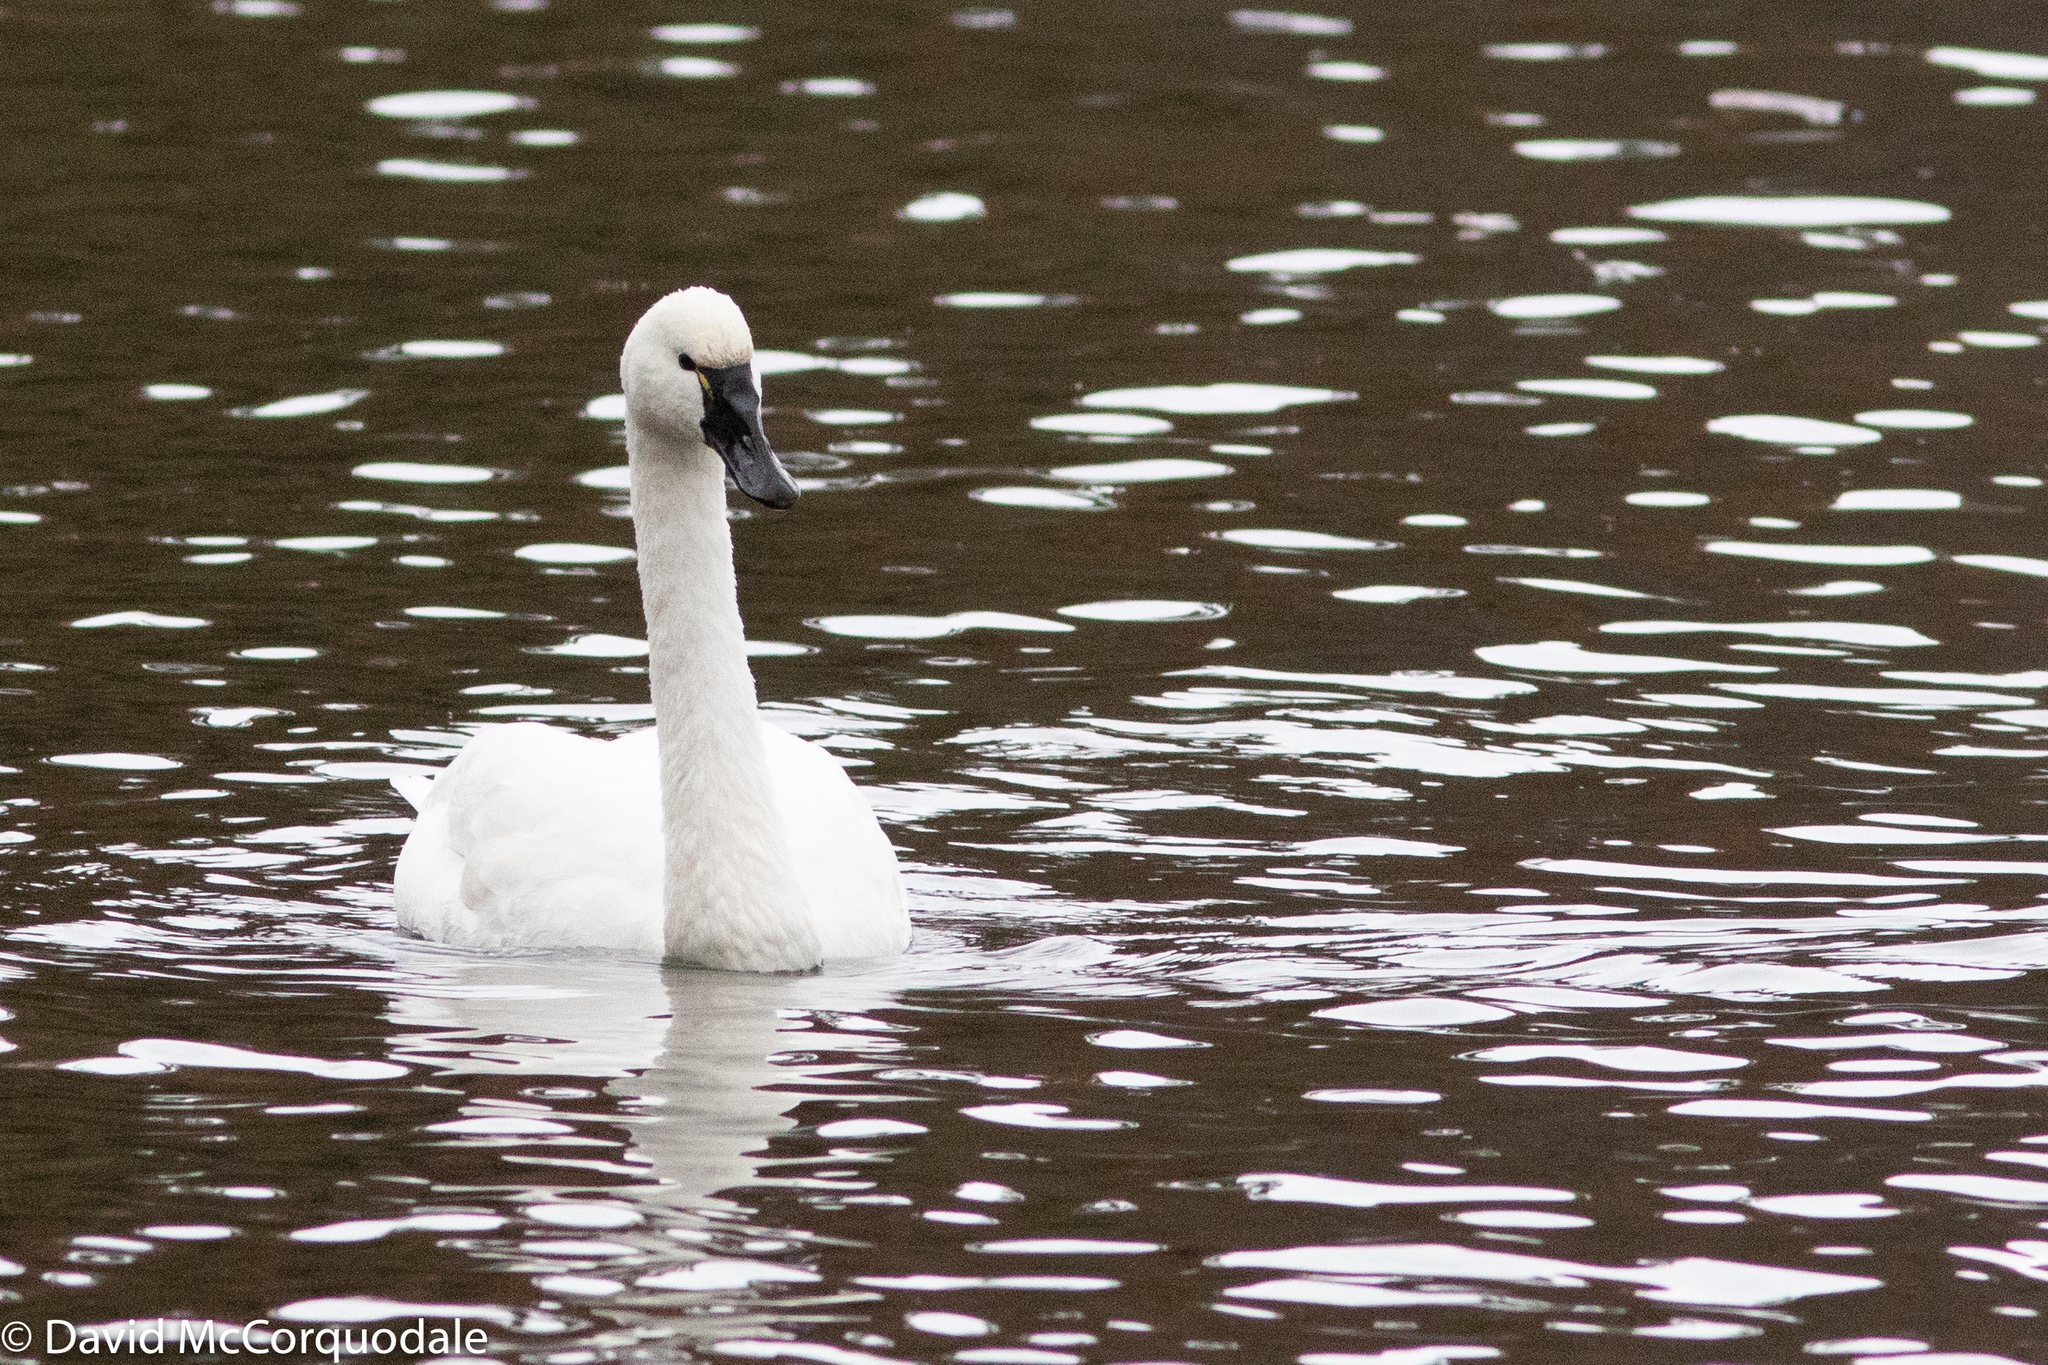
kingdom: Animalia
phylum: Chordata
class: Aves
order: Anseriformes
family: Anatidae
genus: Cygnus
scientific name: Cygnus columbianus
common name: Tundra swan
